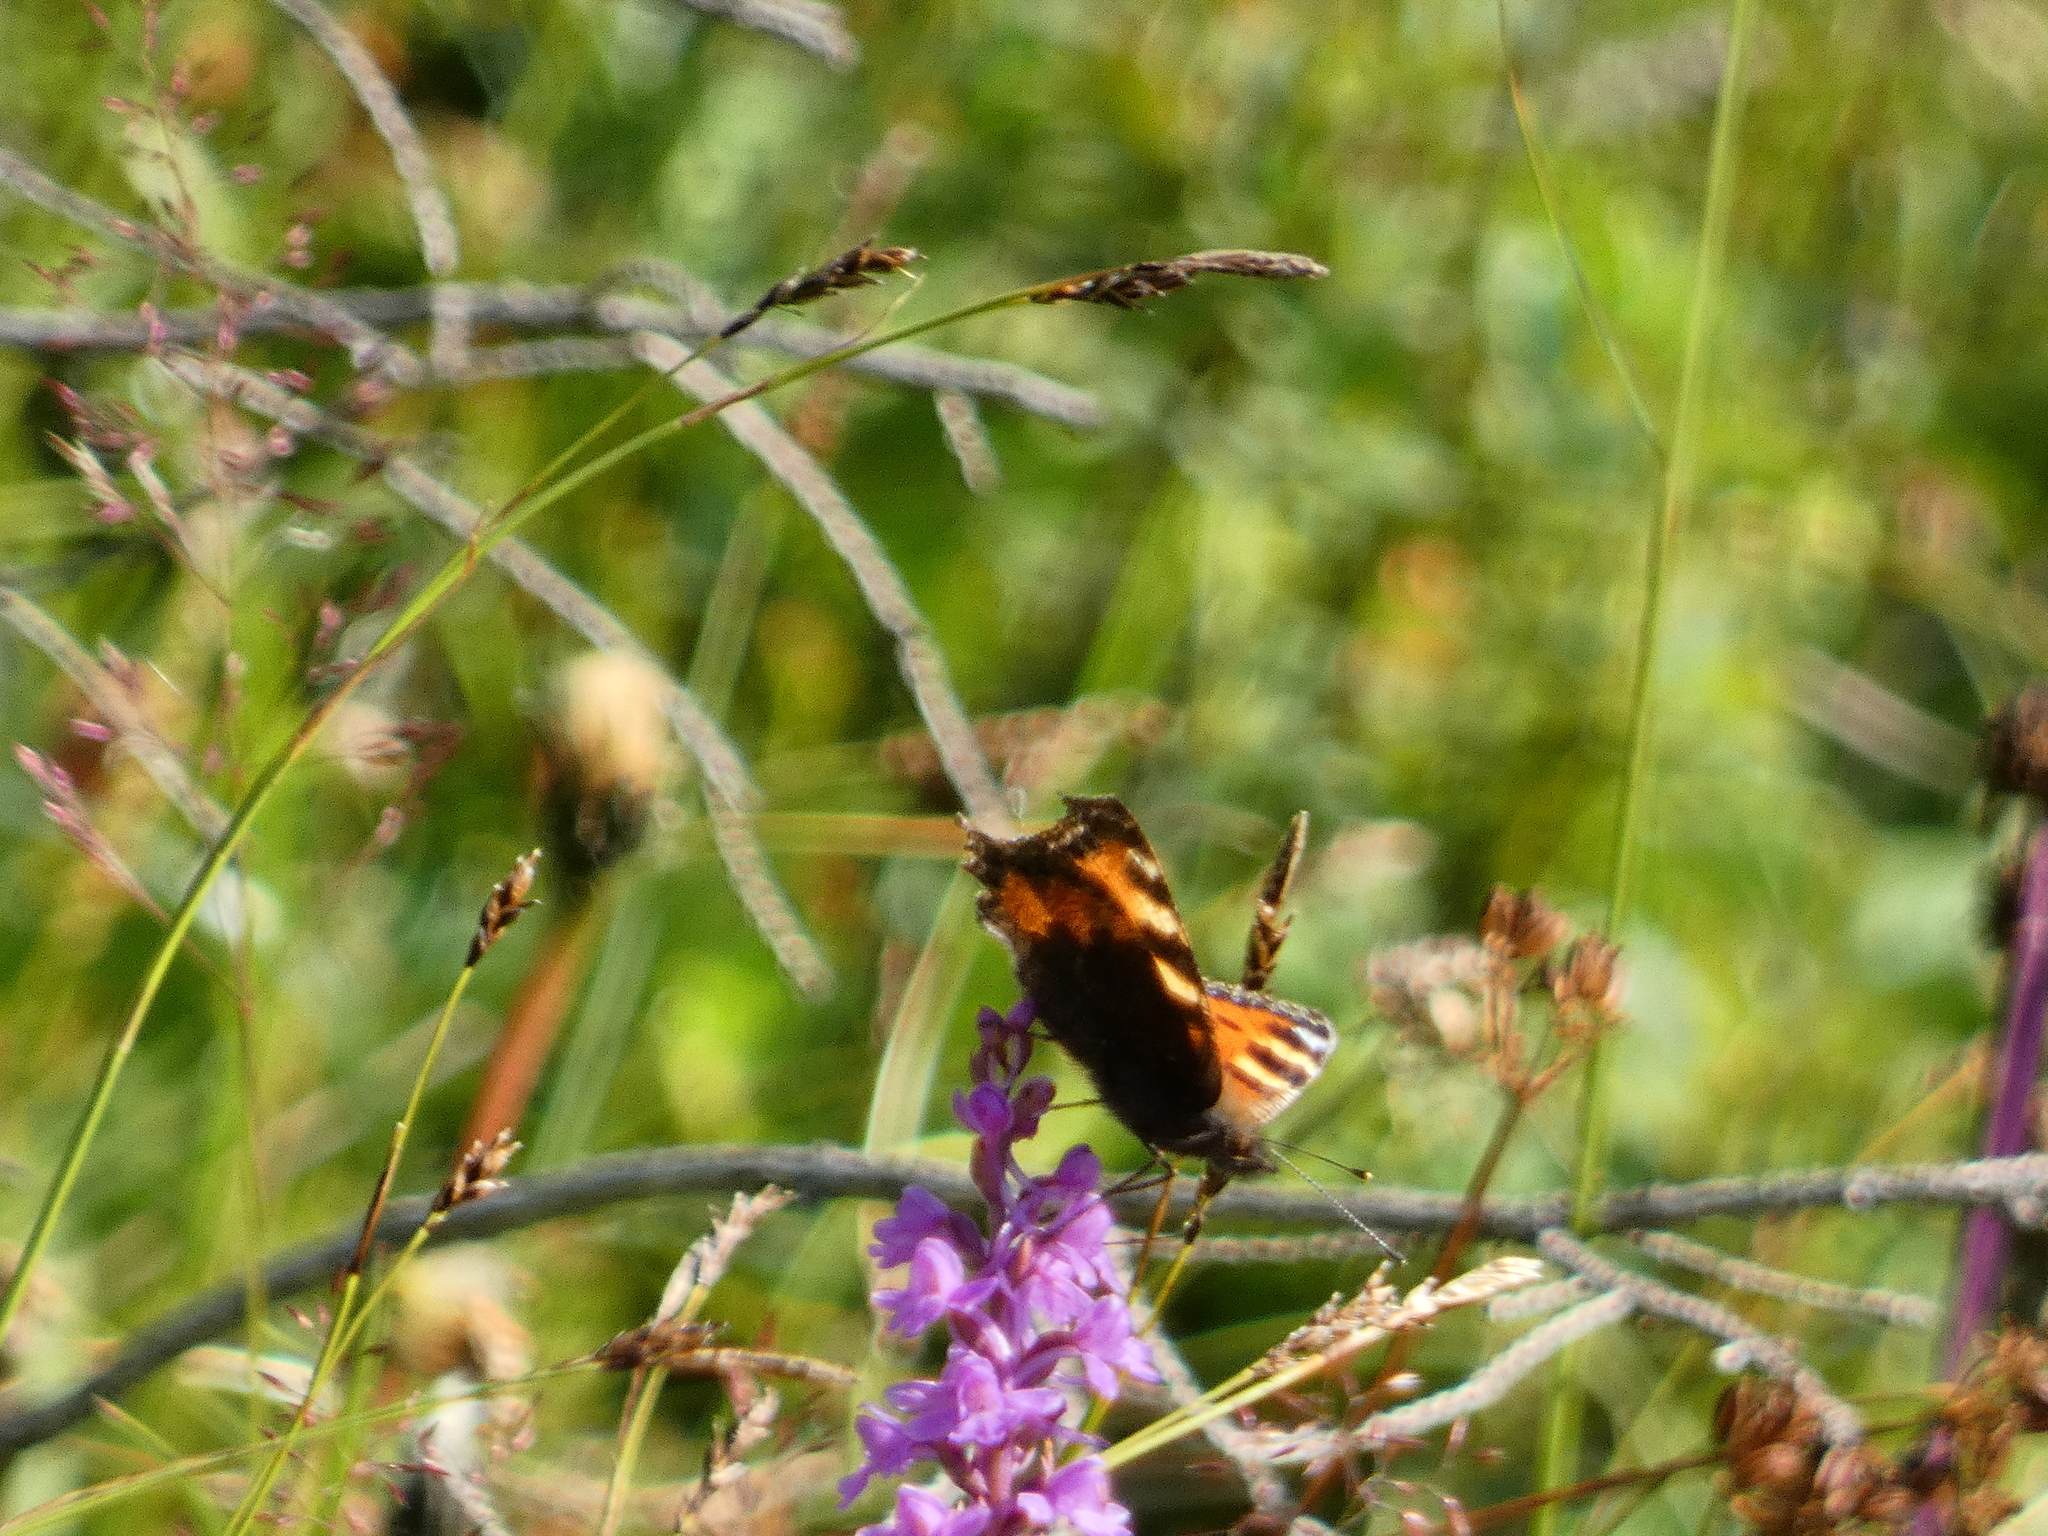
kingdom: Animalia
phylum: Arthropoda
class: Insecta
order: Lepidoptera
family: Nymphalidae
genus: Aglais
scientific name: Aglais urticae
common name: Small tortoiseshell
